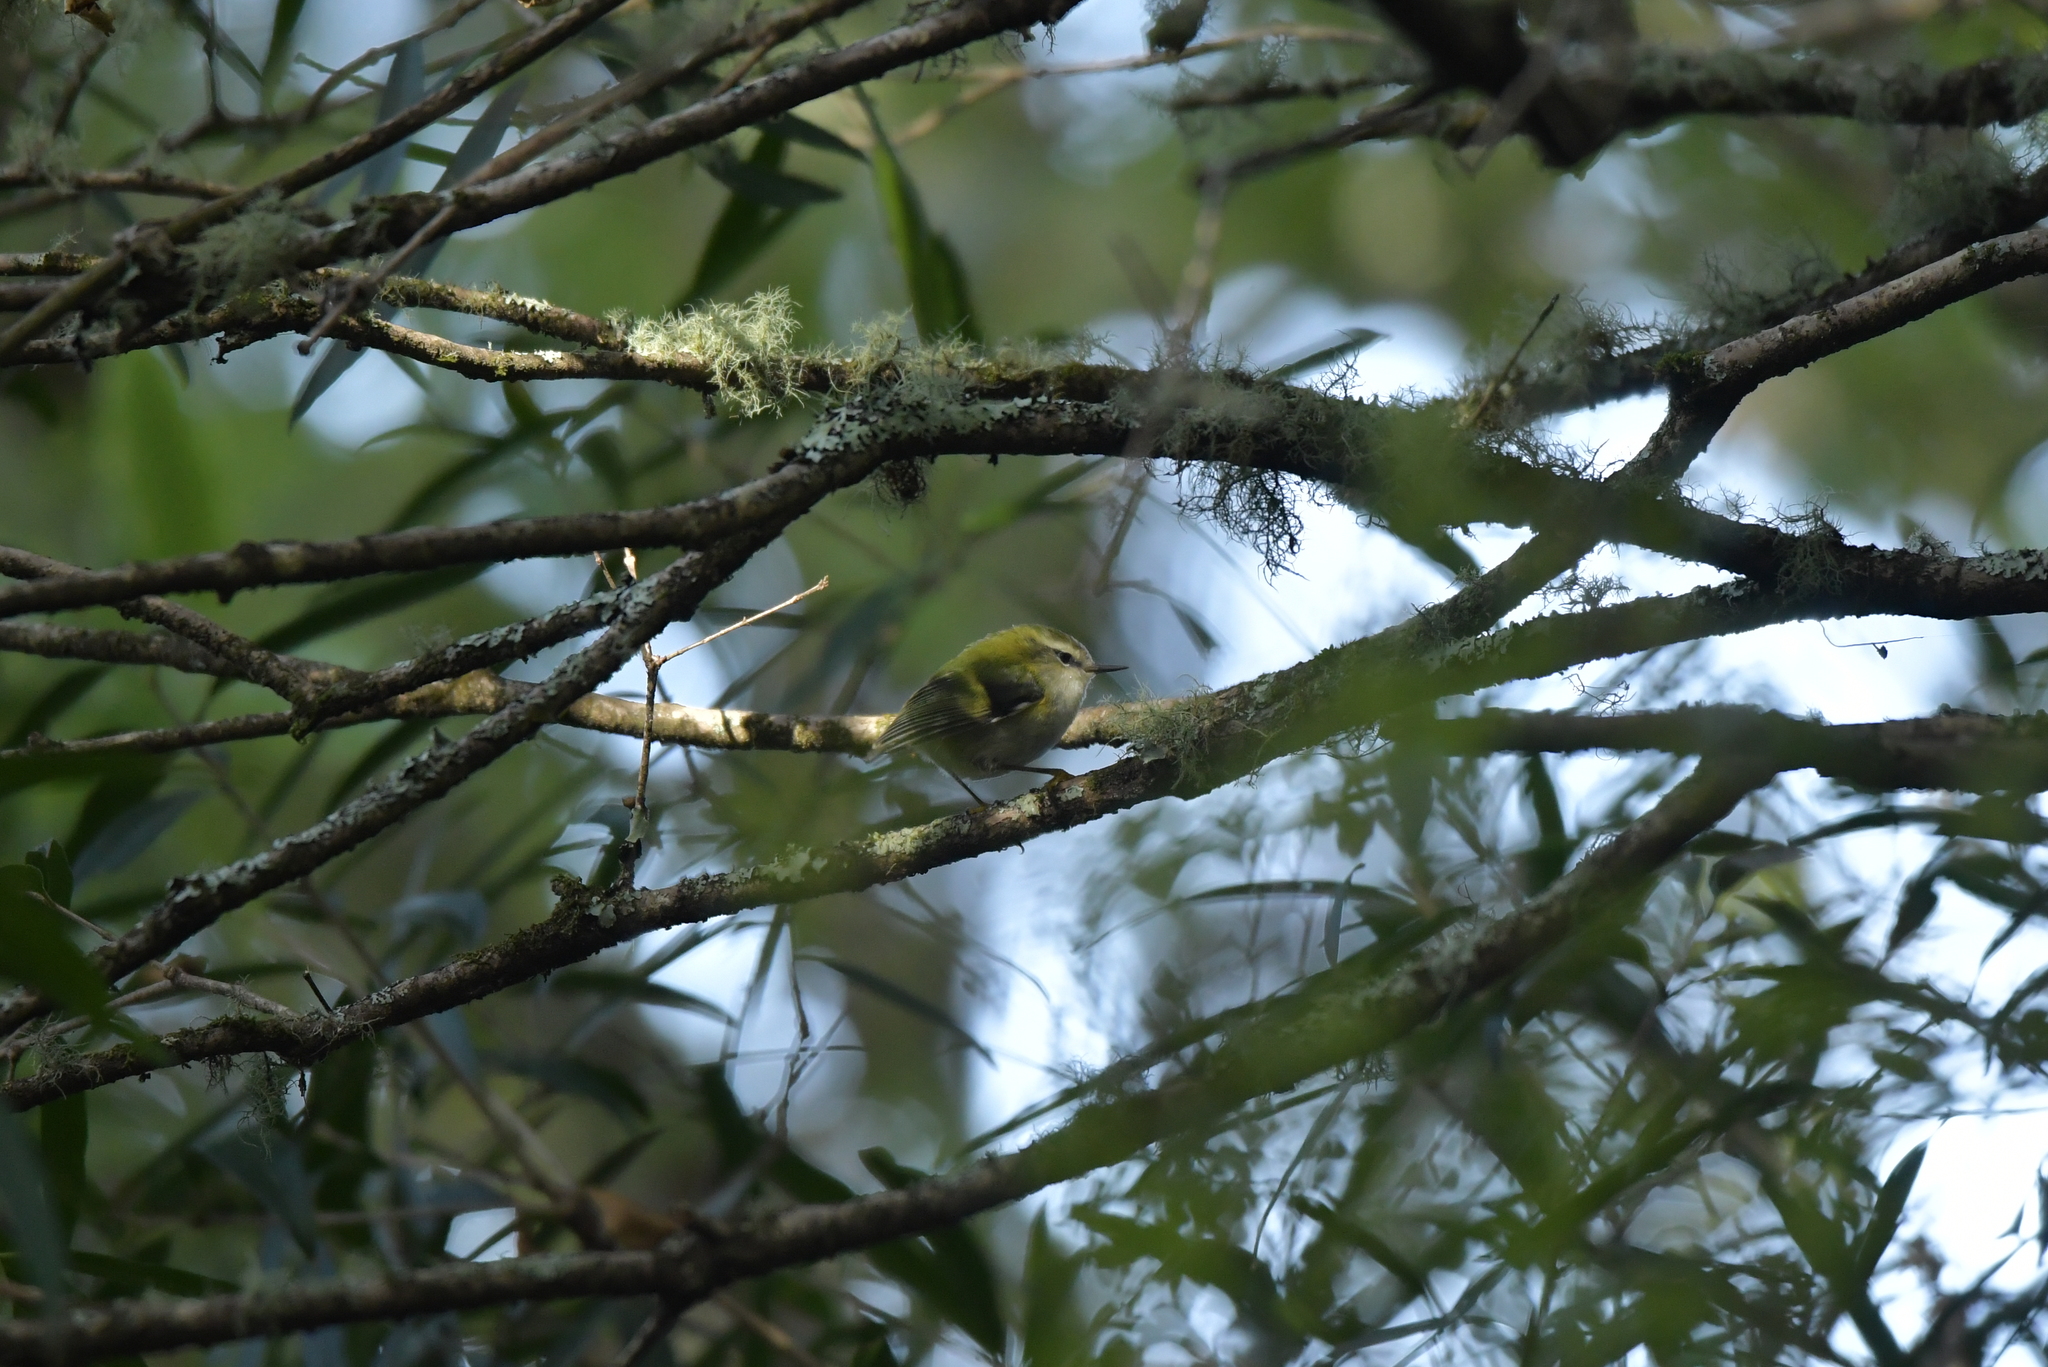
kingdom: Animalia
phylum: Chordata
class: Aves
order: Passeriformes
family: Acanthisittidae
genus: Acanthisitta
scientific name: Acanthisitta chloris
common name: Rifleman
